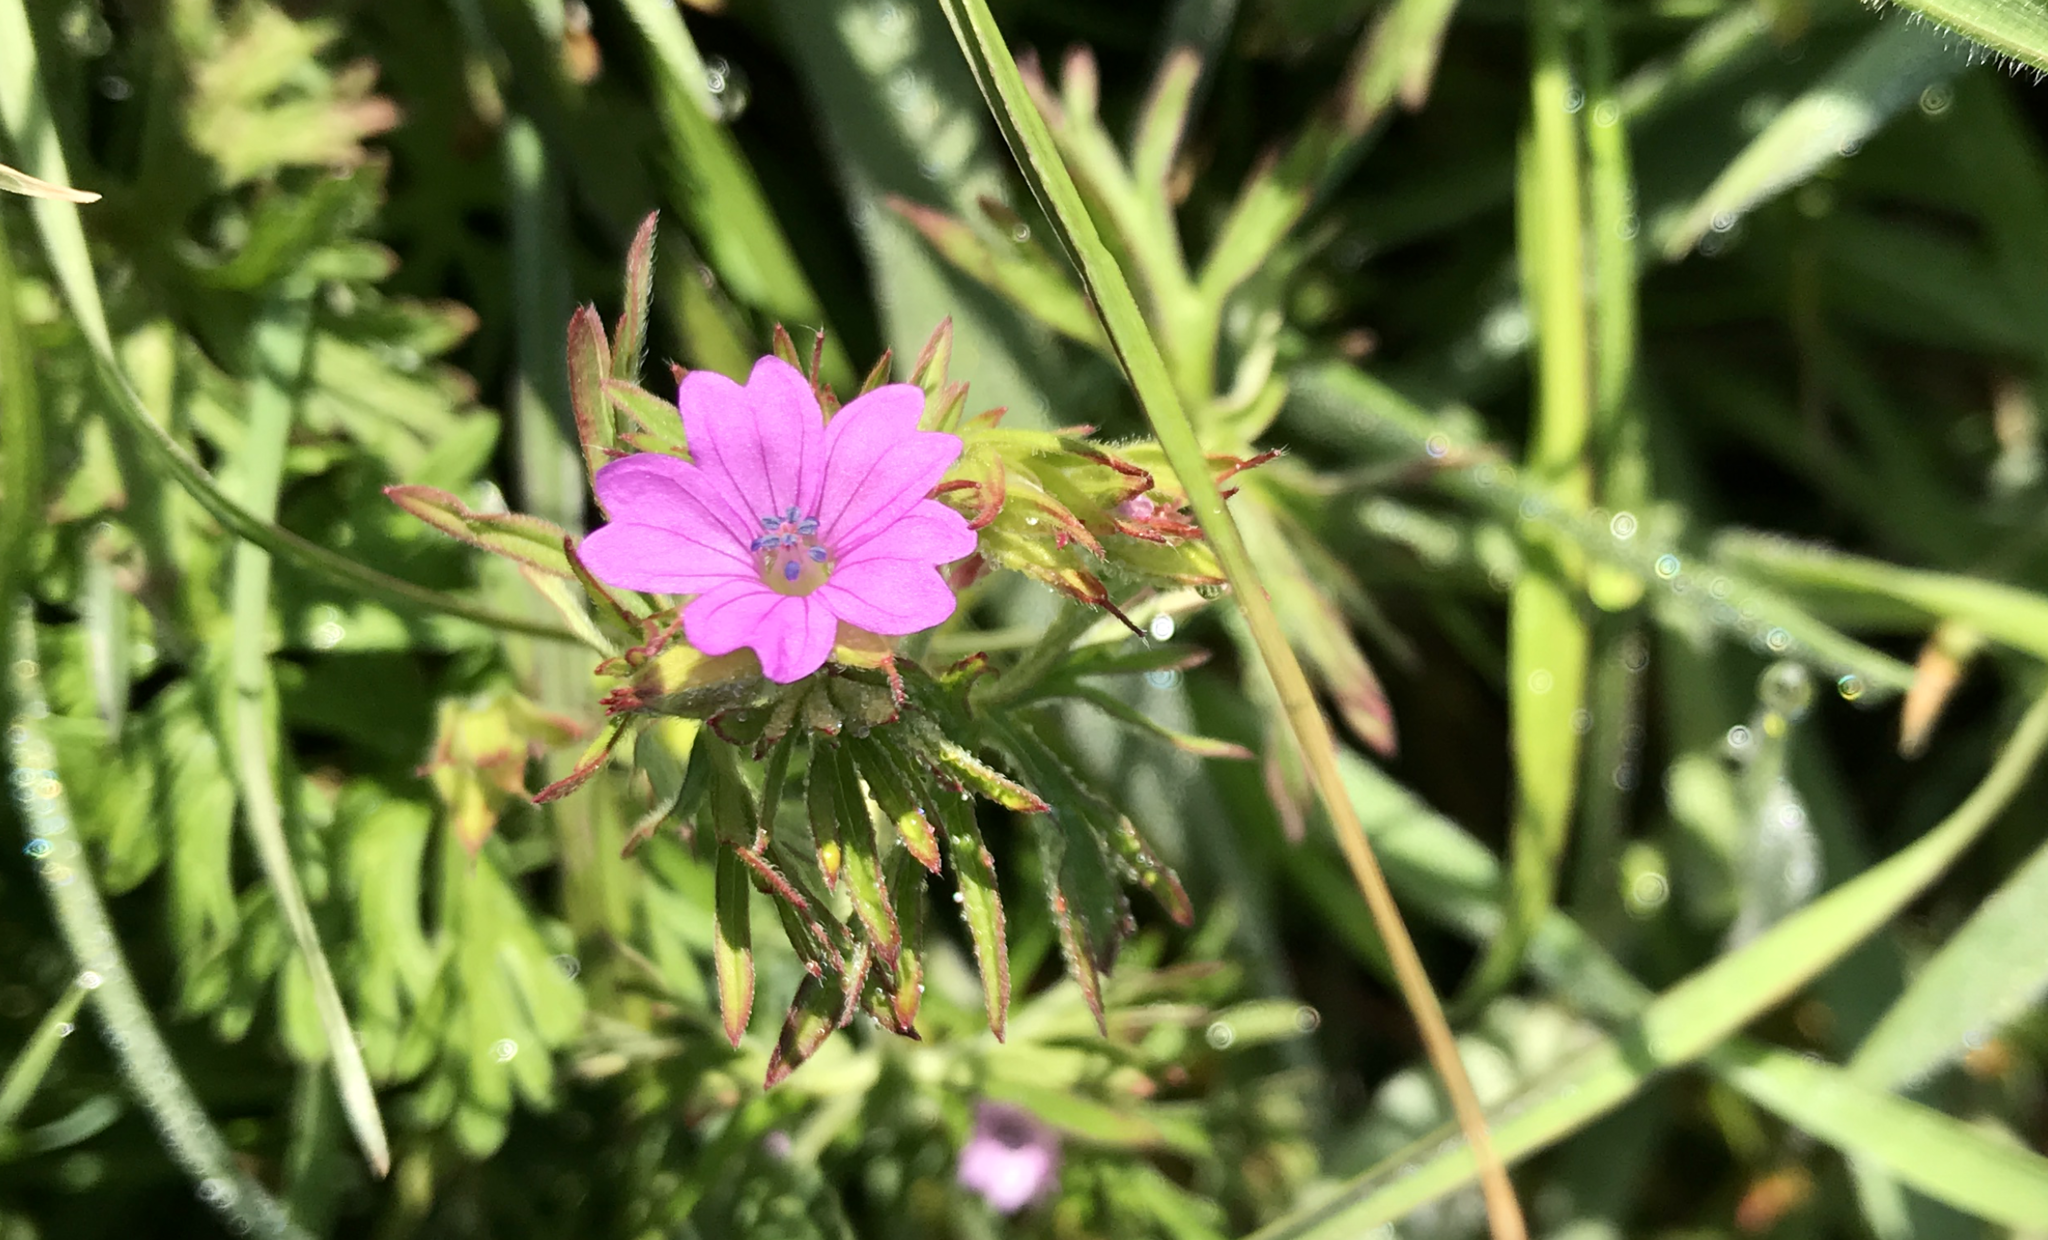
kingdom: Plantae
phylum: Tracheophyta
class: Magnoliopsida
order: Geraniales
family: Geraniaceae
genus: Geranium
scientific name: Geranium dissectum
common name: Cut-leaved crane's-bill
